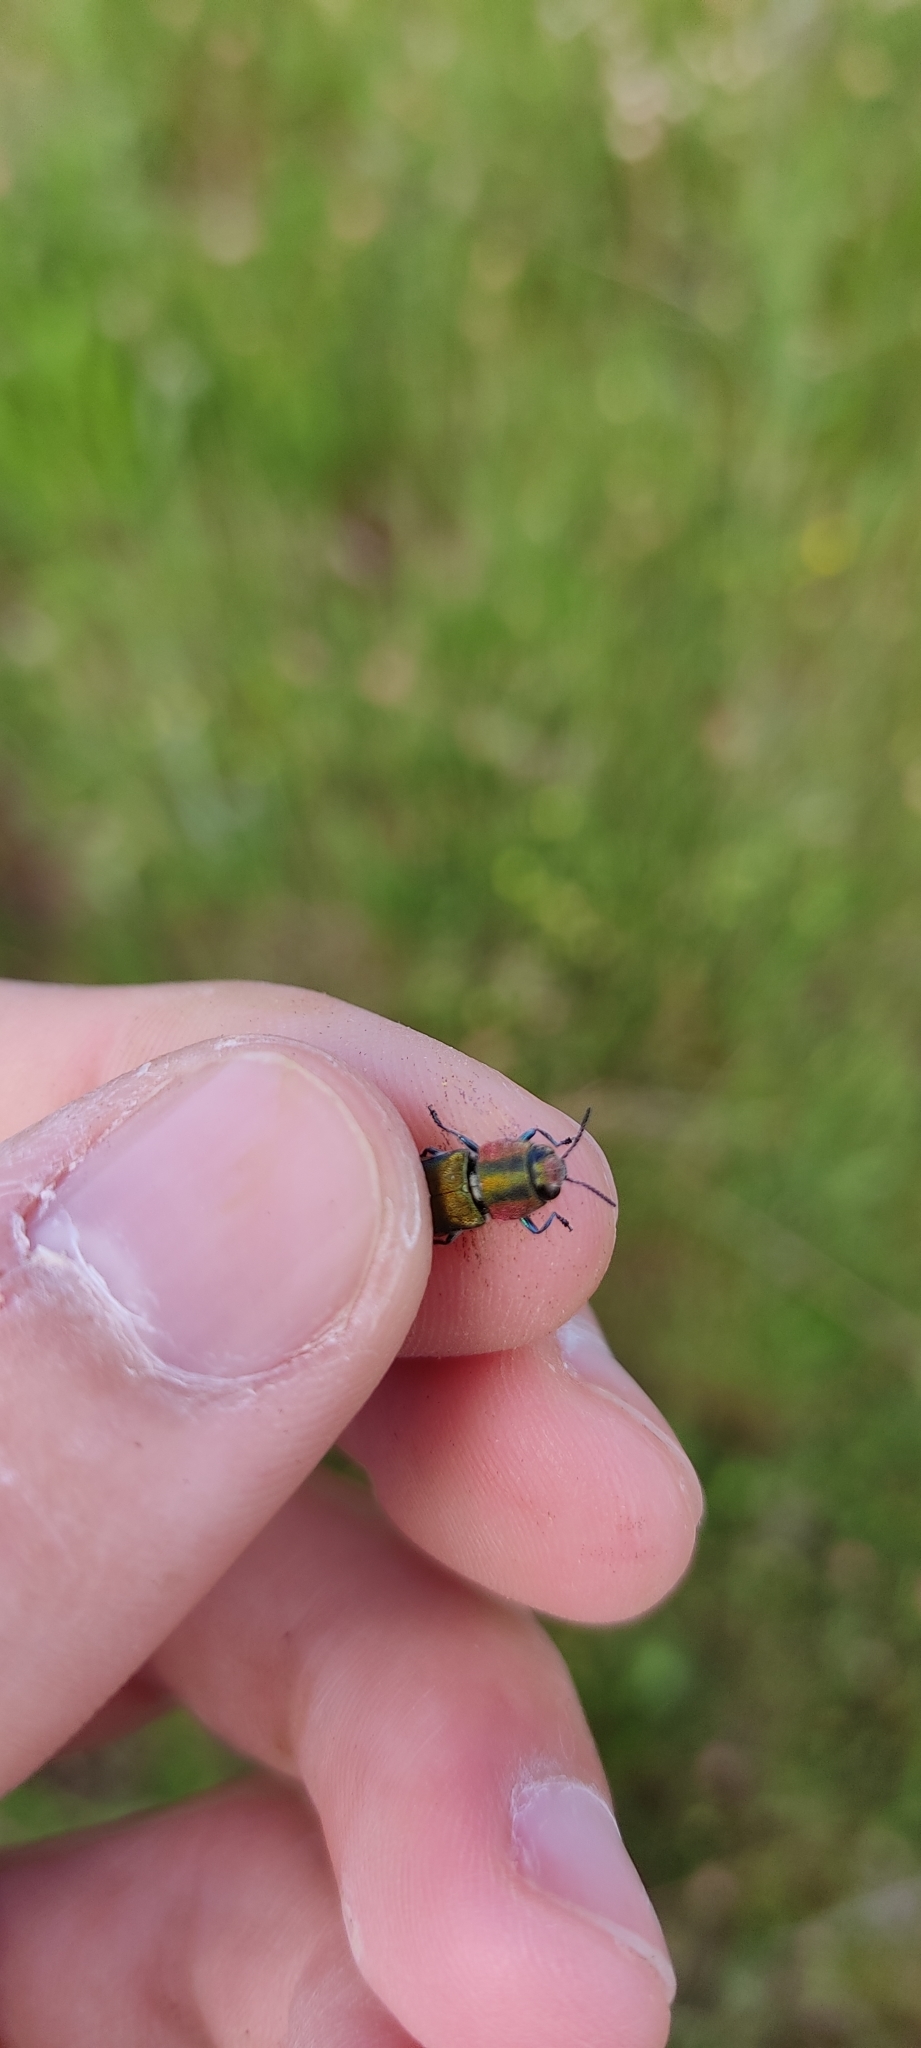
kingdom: Animalia
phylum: Arthropoda
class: Insecta
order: Coleoptera
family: Buprestidae
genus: Anthaxia
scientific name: Anthaxia hungarica
